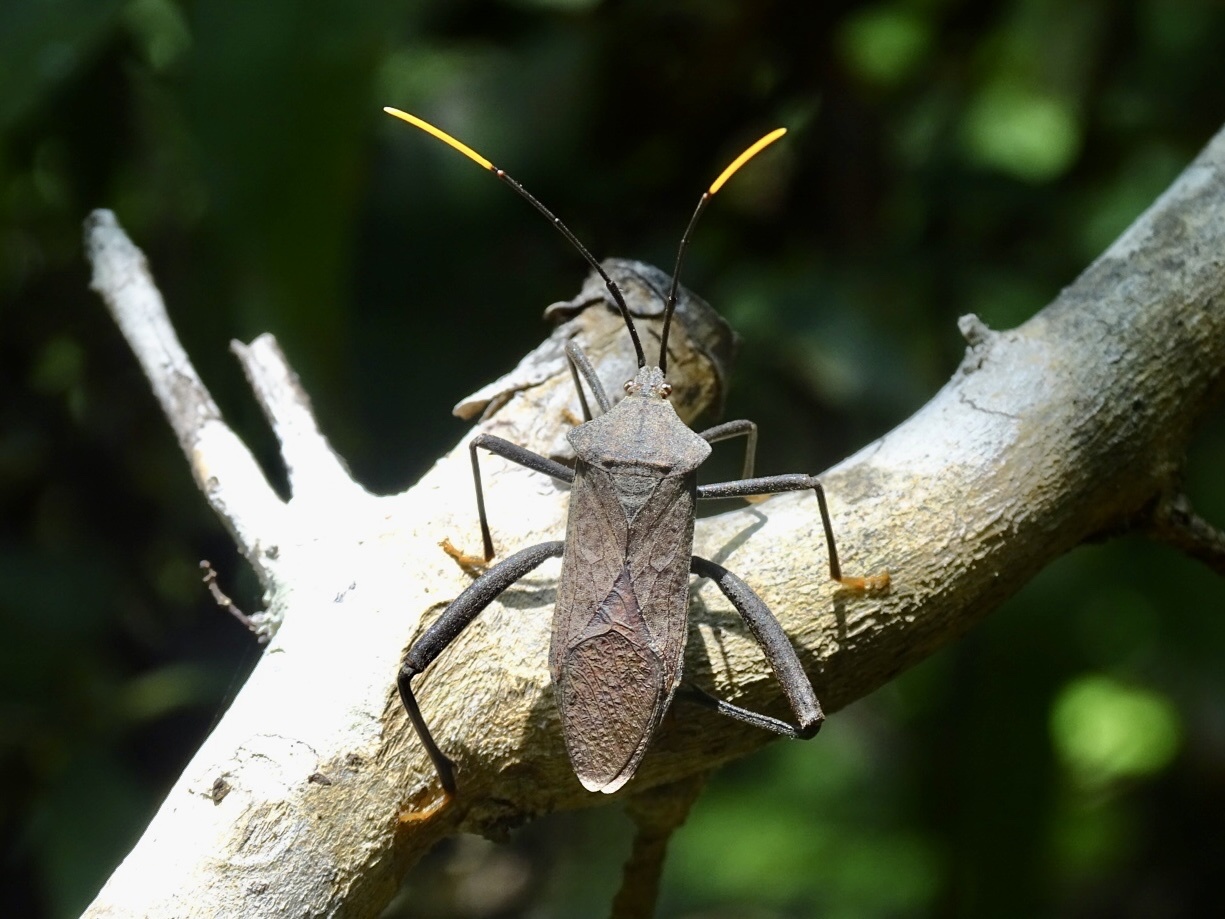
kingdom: Animalia
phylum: Arthropoda
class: Insecta
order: Hemiptera
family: Coreidae
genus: Mictis
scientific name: Mictis fuscipes
